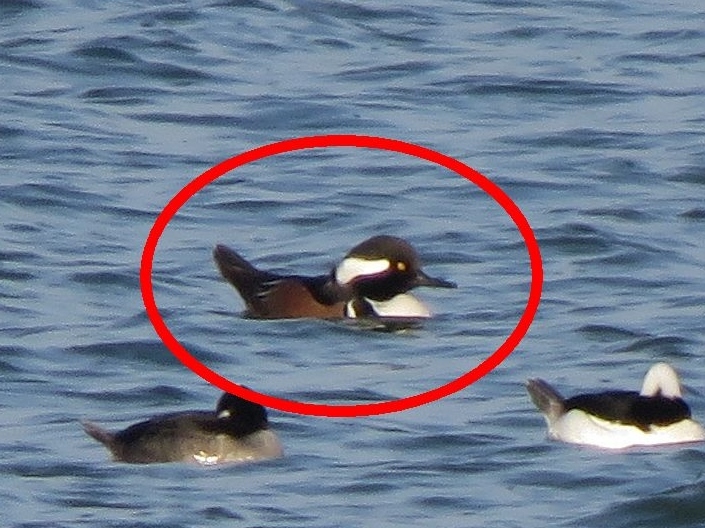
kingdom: Animalia
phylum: Chordata
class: Aves
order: Anseriformes
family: Anatidae
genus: Lophodytes
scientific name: Lophodytes cucullatus
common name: Hooded merganser
